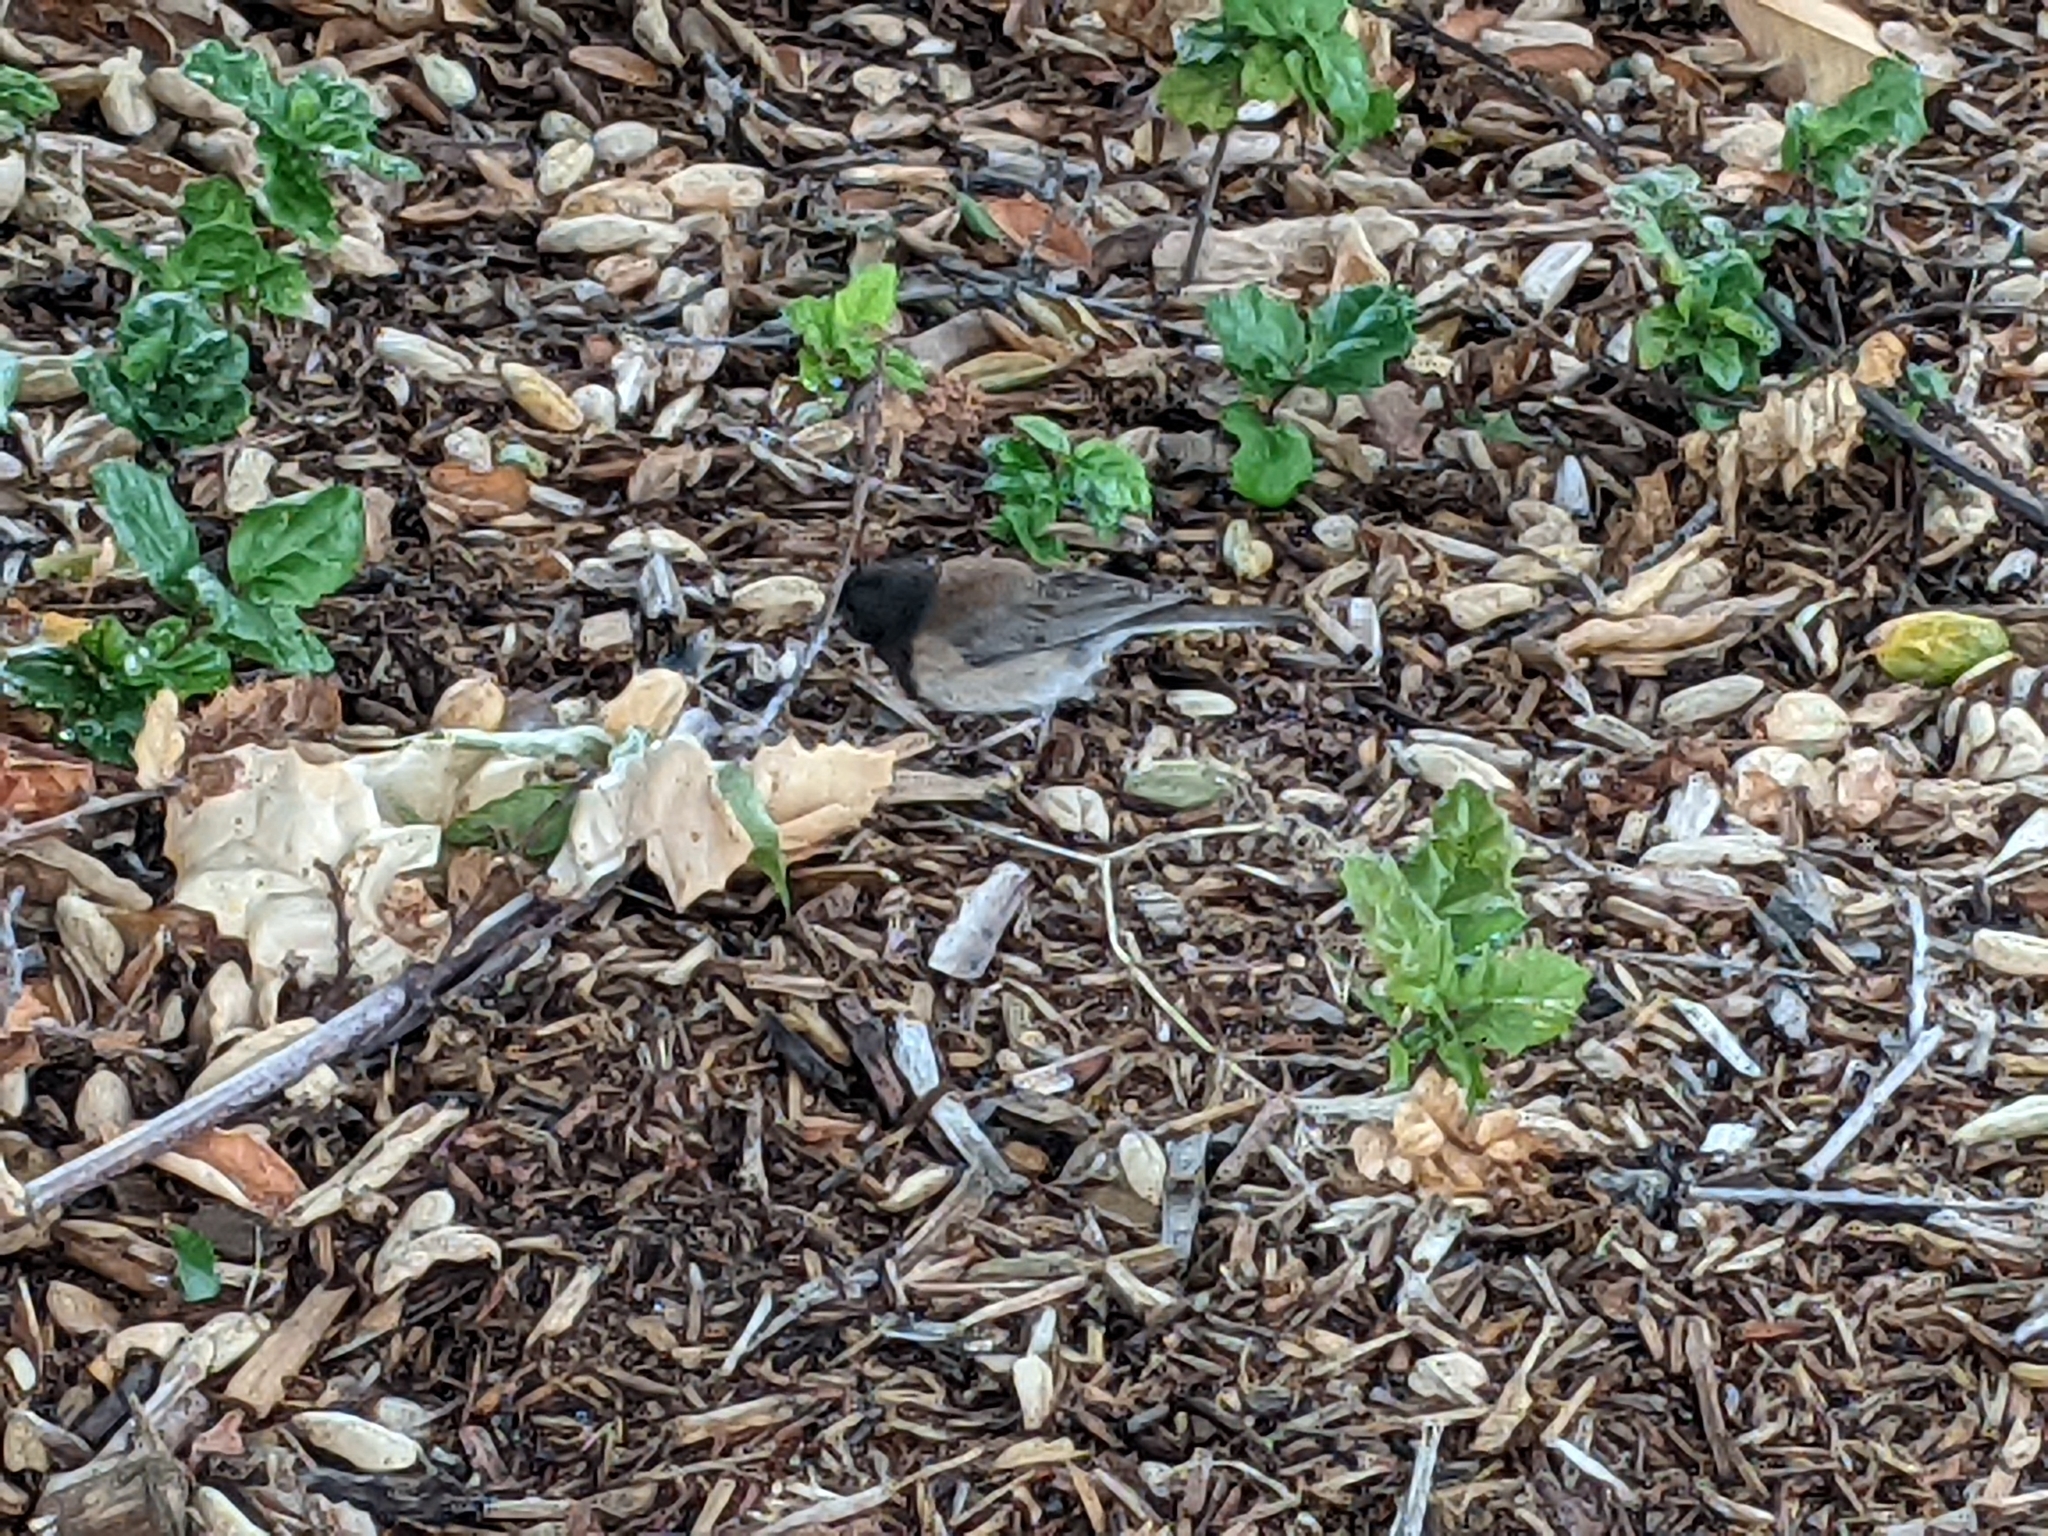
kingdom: Animalia
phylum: Chordata
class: Aves
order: Passeriformes
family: Passerellidae
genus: Junco
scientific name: Junco hyemalis
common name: Dark-eyed junco
